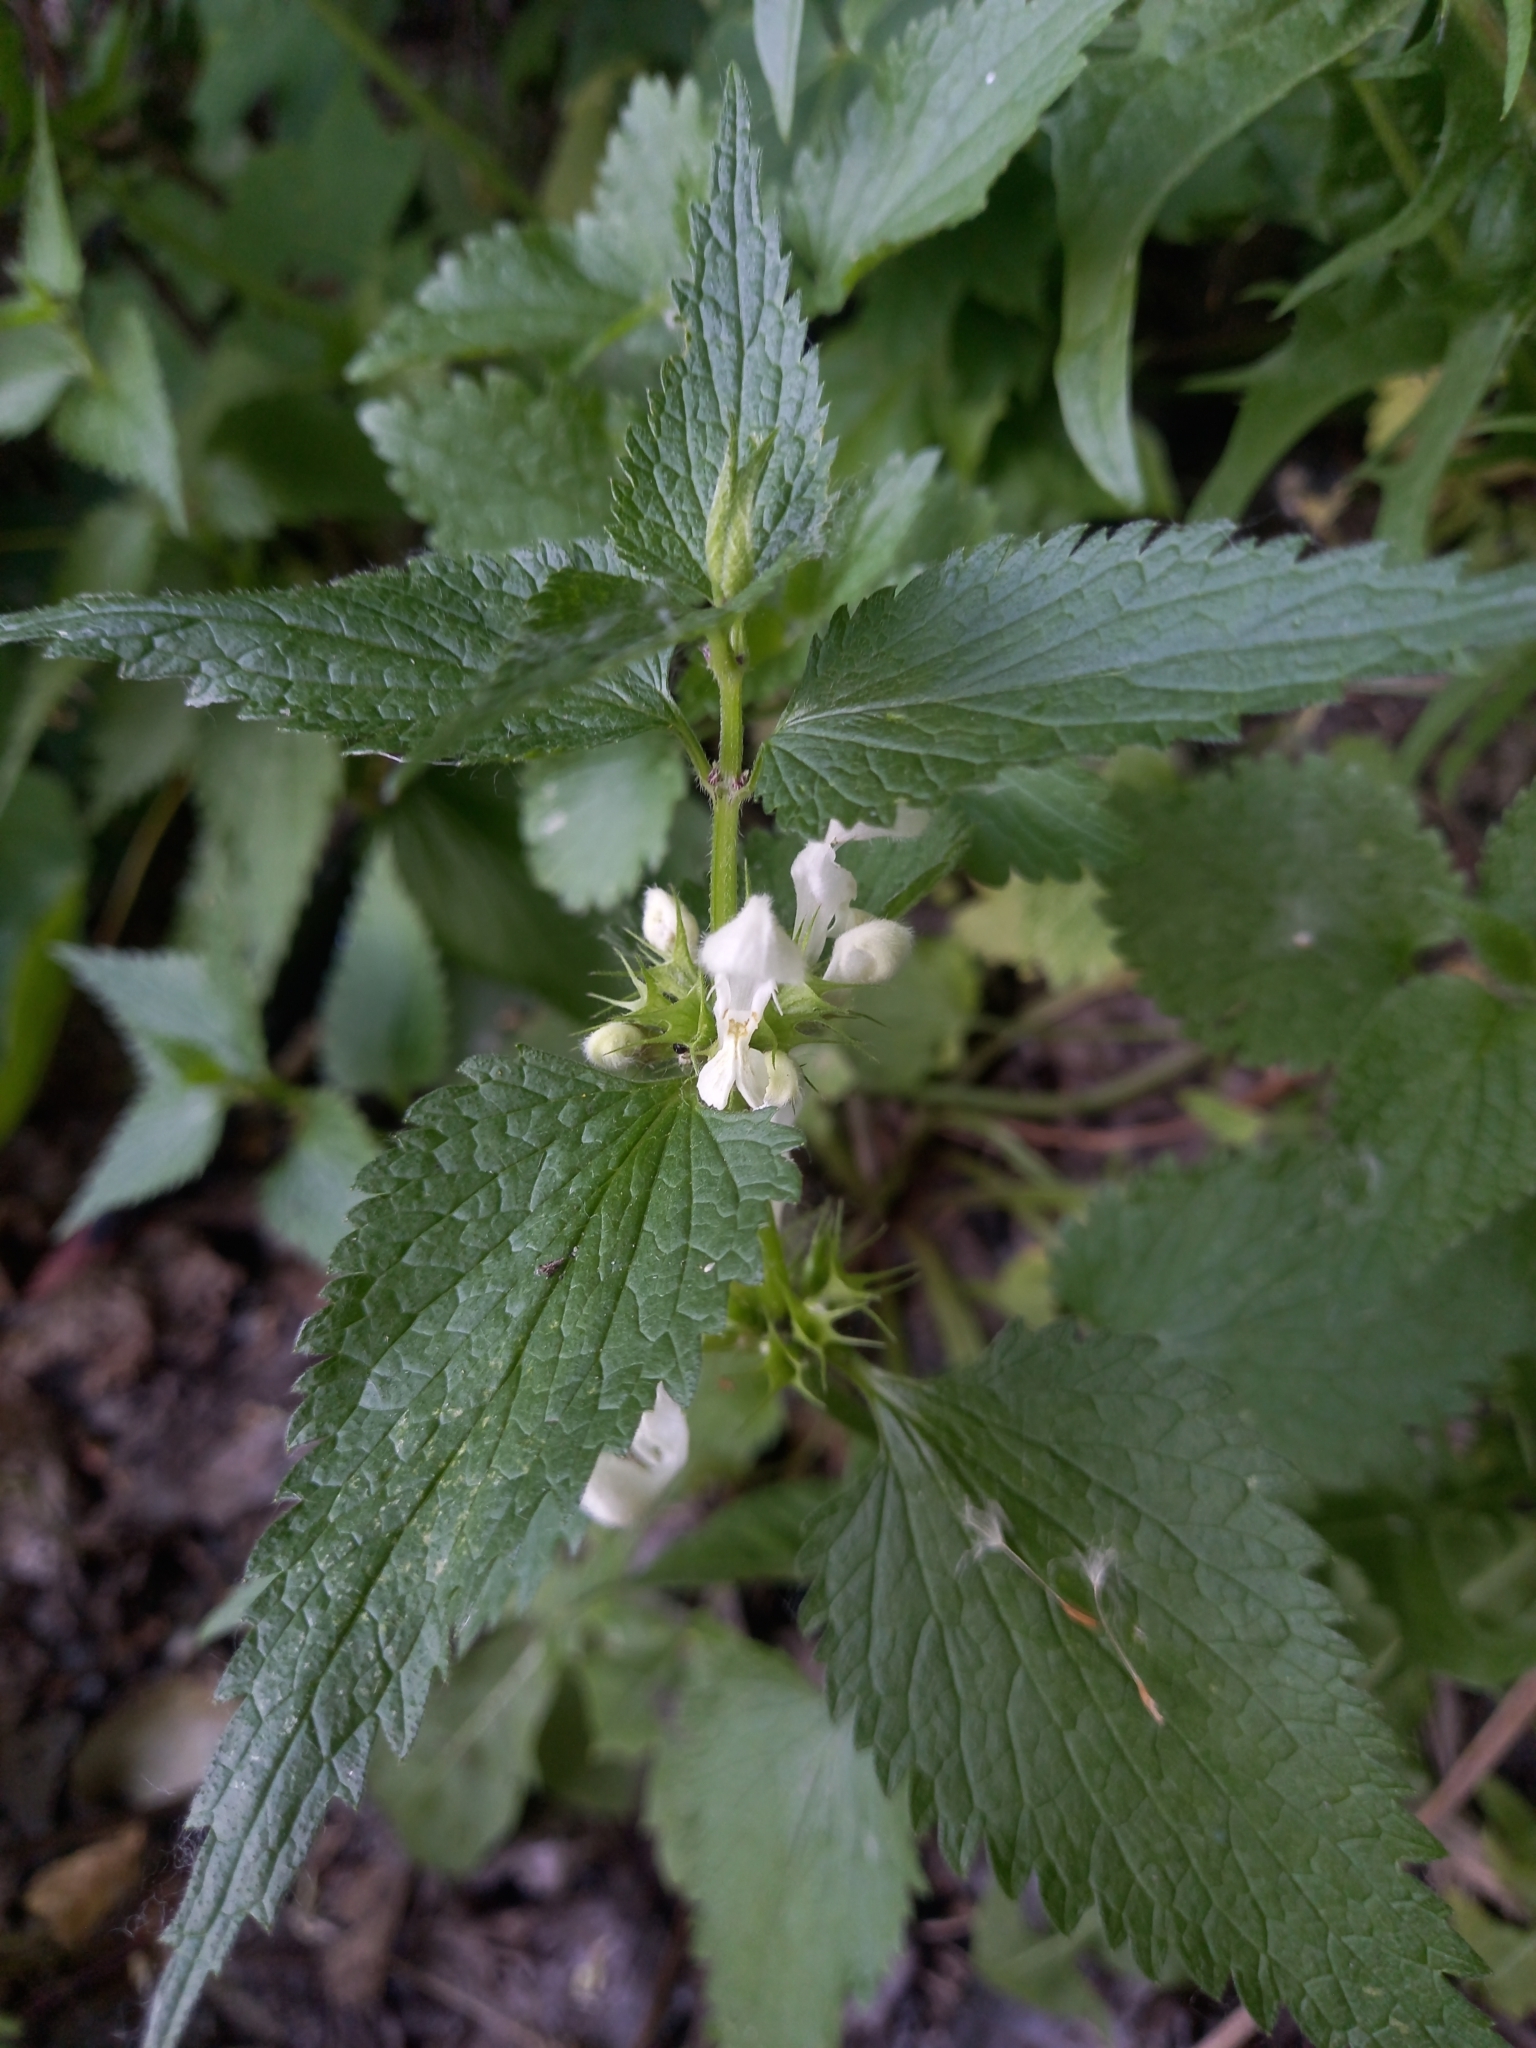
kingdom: Plantae
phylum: Tracheophyta
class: Magnoliopsida
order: Lamiales
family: Lamiaceae
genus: Lamium
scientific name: Lamium album
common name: White dead-nettle
